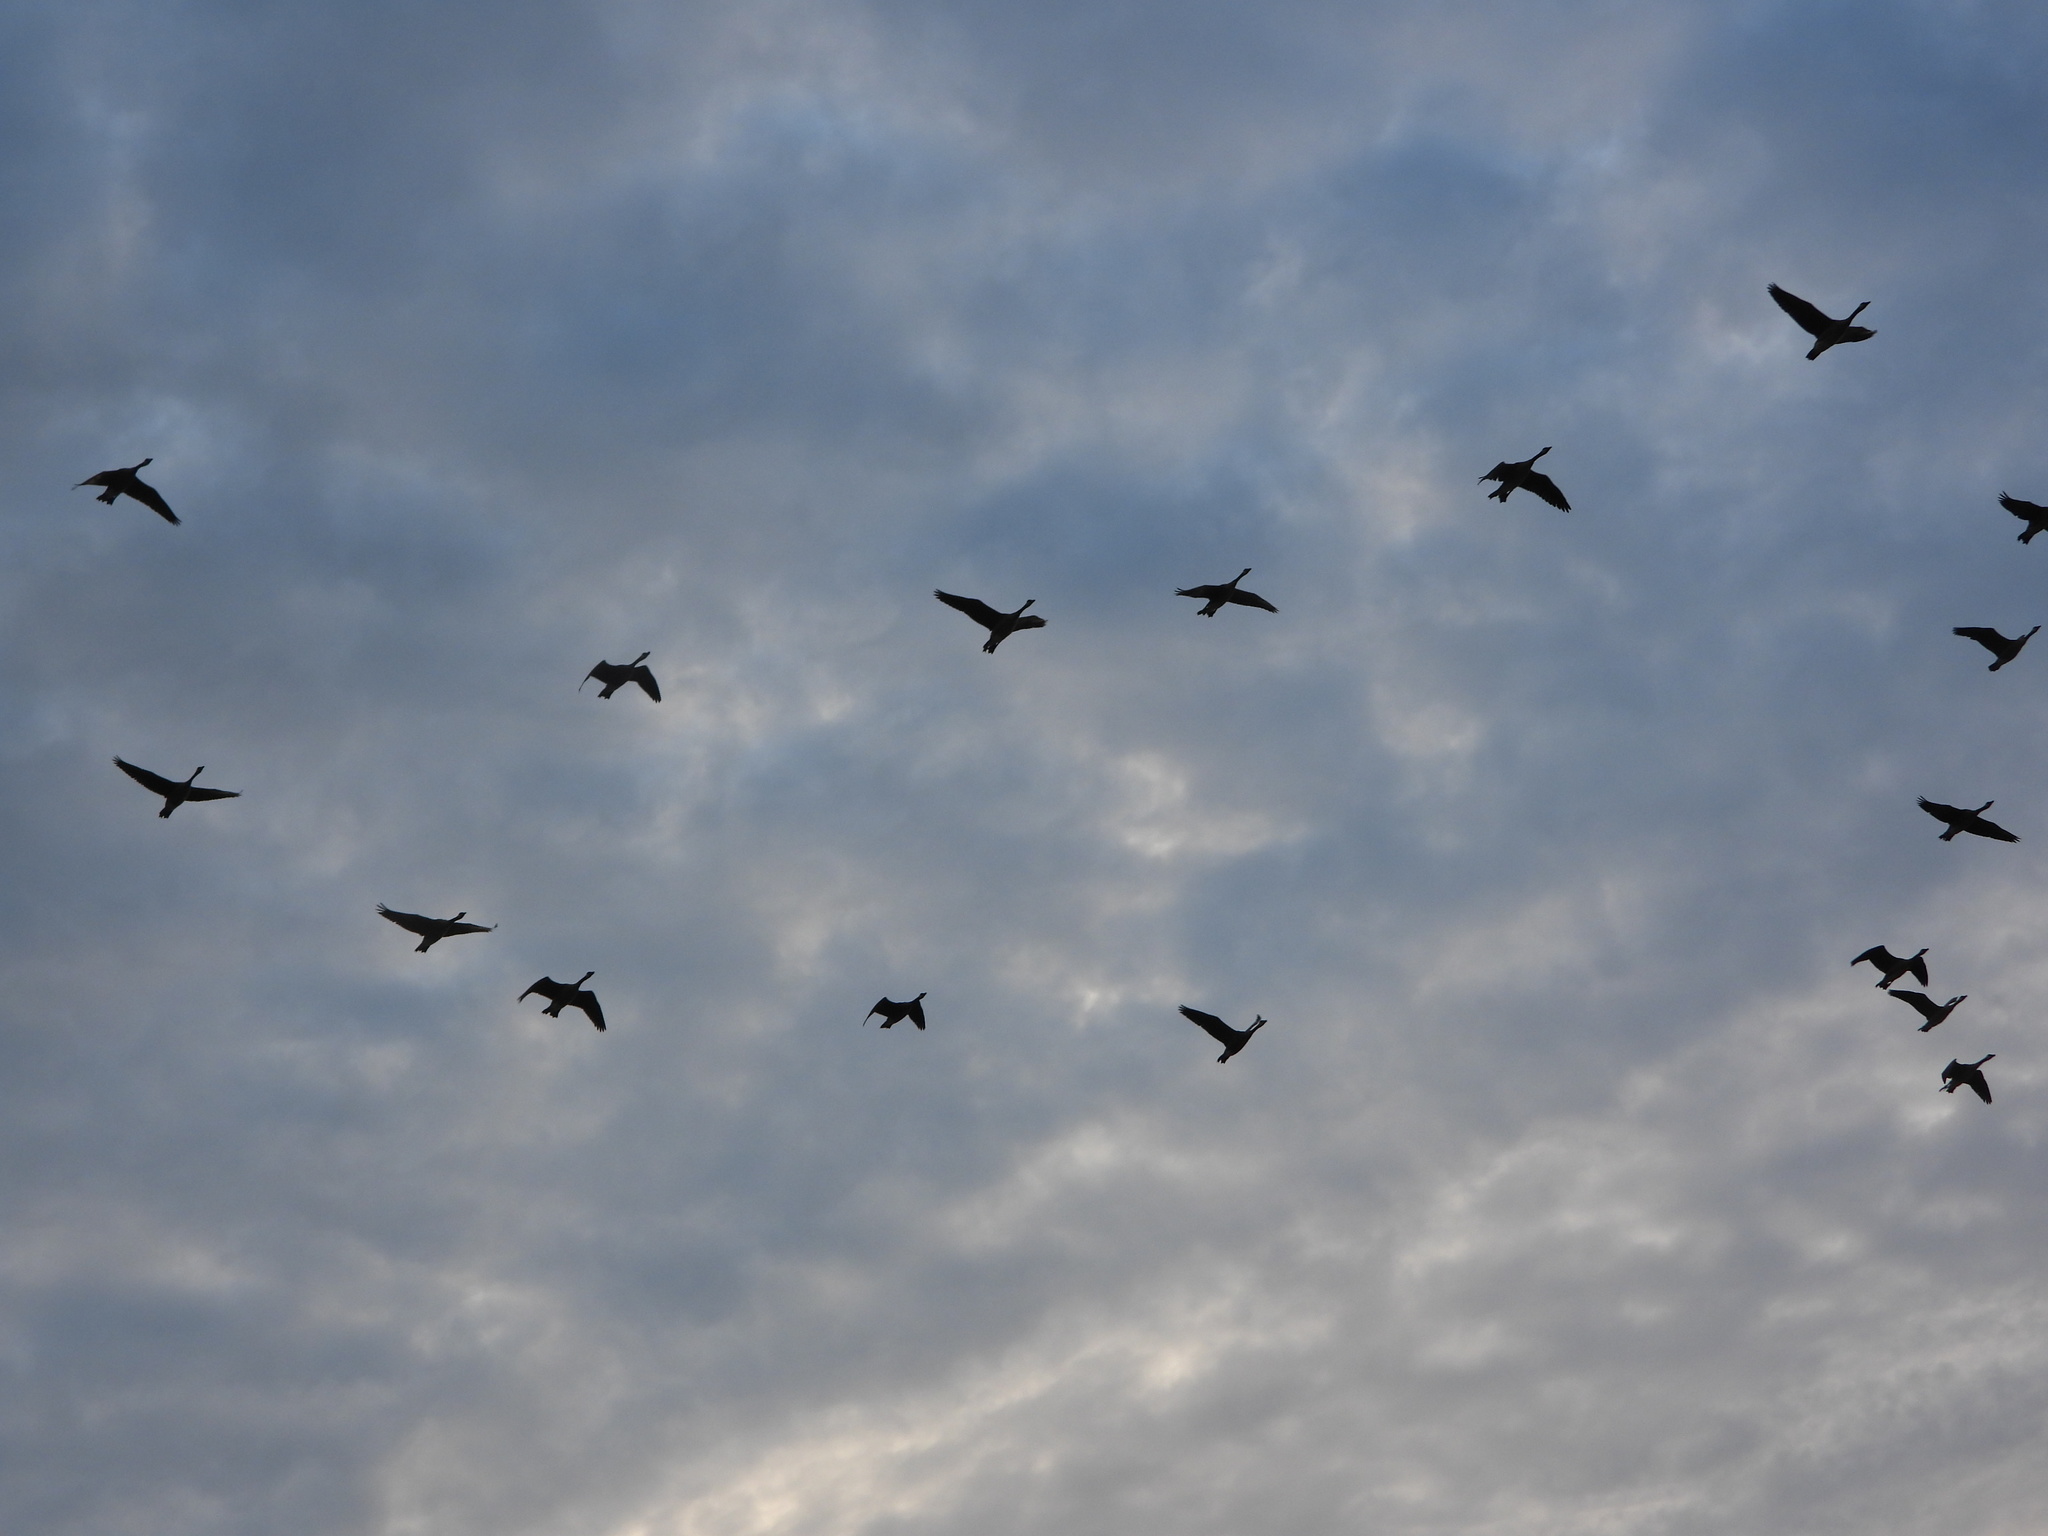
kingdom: Animalia
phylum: Chordata
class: Aves
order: Anseriformes
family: Anatidae
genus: Branta
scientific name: Branta canadensis
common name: Canada goose
